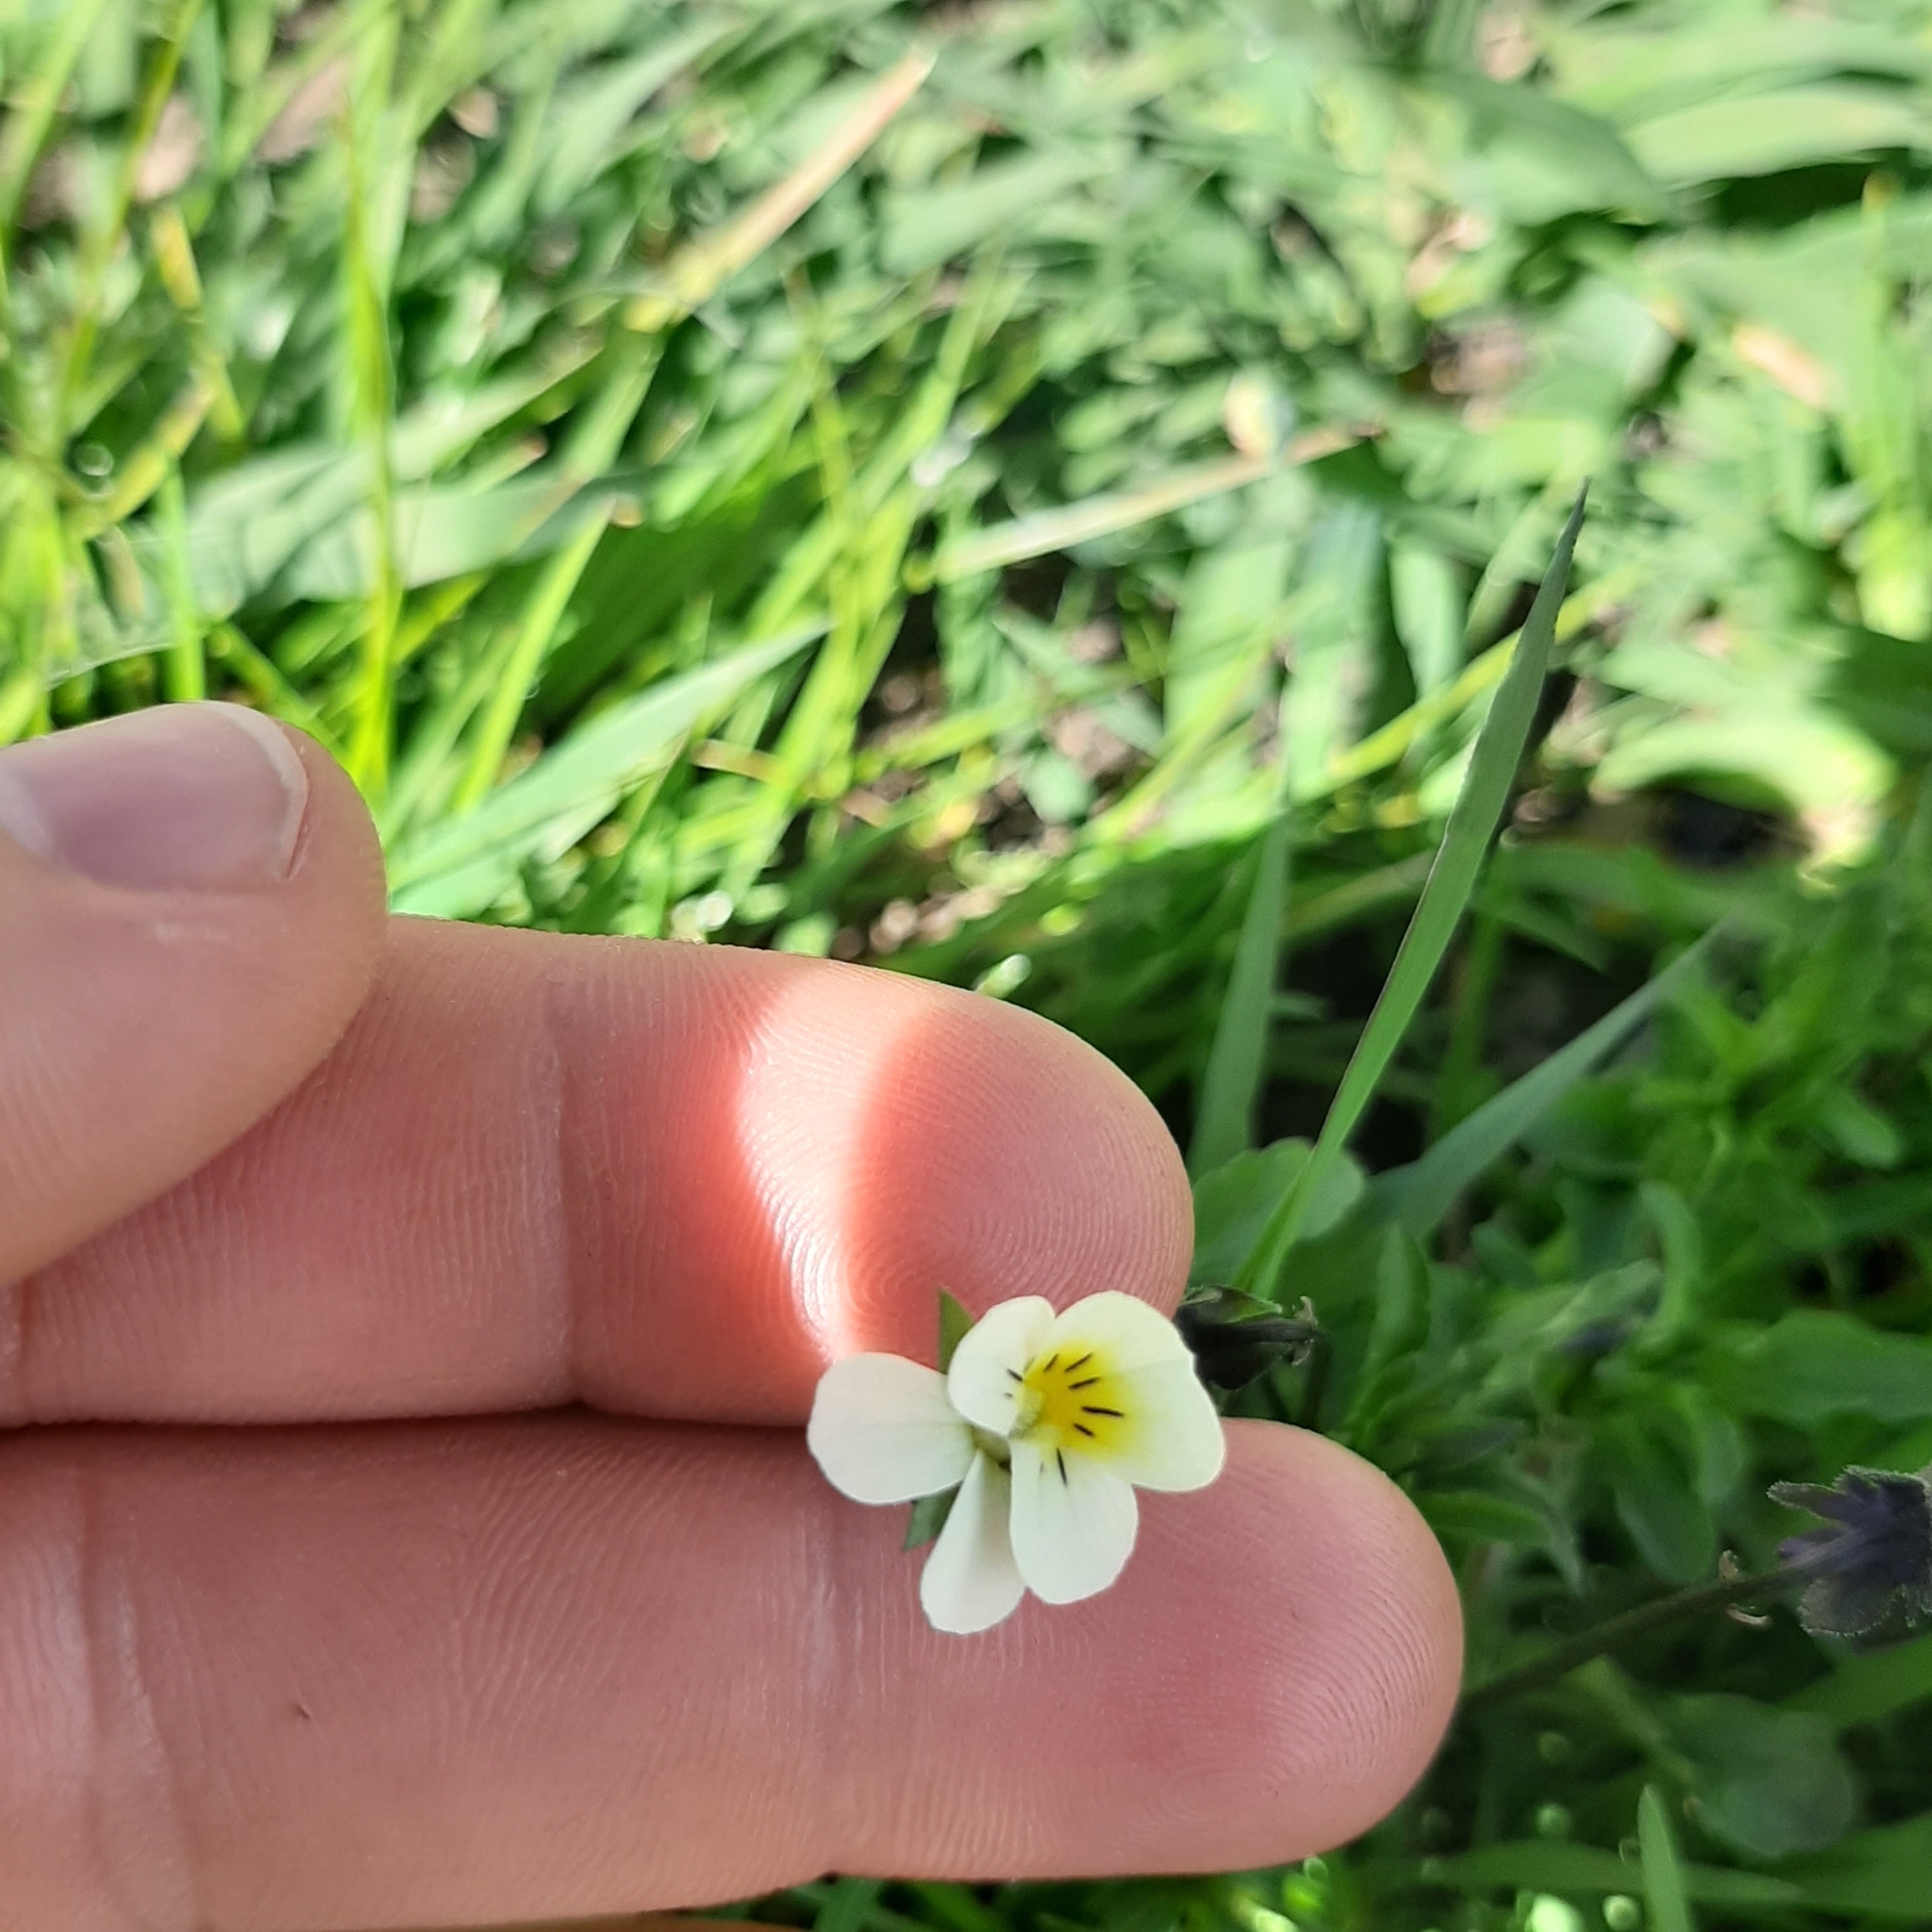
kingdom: Plantae
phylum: Tracheophyta
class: Magnoliopsida
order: Malpighiales
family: Violaceae
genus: Viola
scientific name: Viola arvensis
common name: Field pansy
